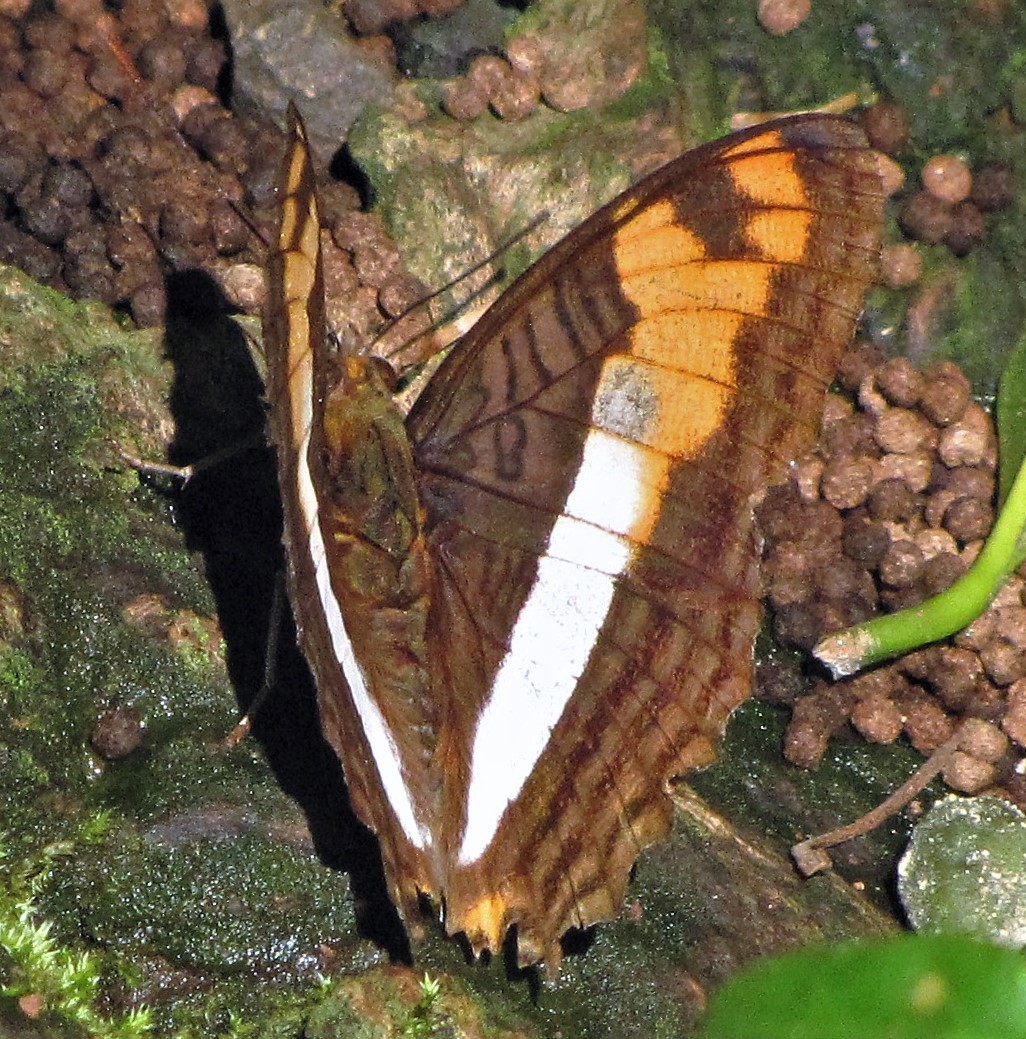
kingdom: Animalia
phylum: Arthropoda
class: Insecta
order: Lepidoptera
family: Nymphalidae
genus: Limenitis
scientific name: Limenitis thesprotia
